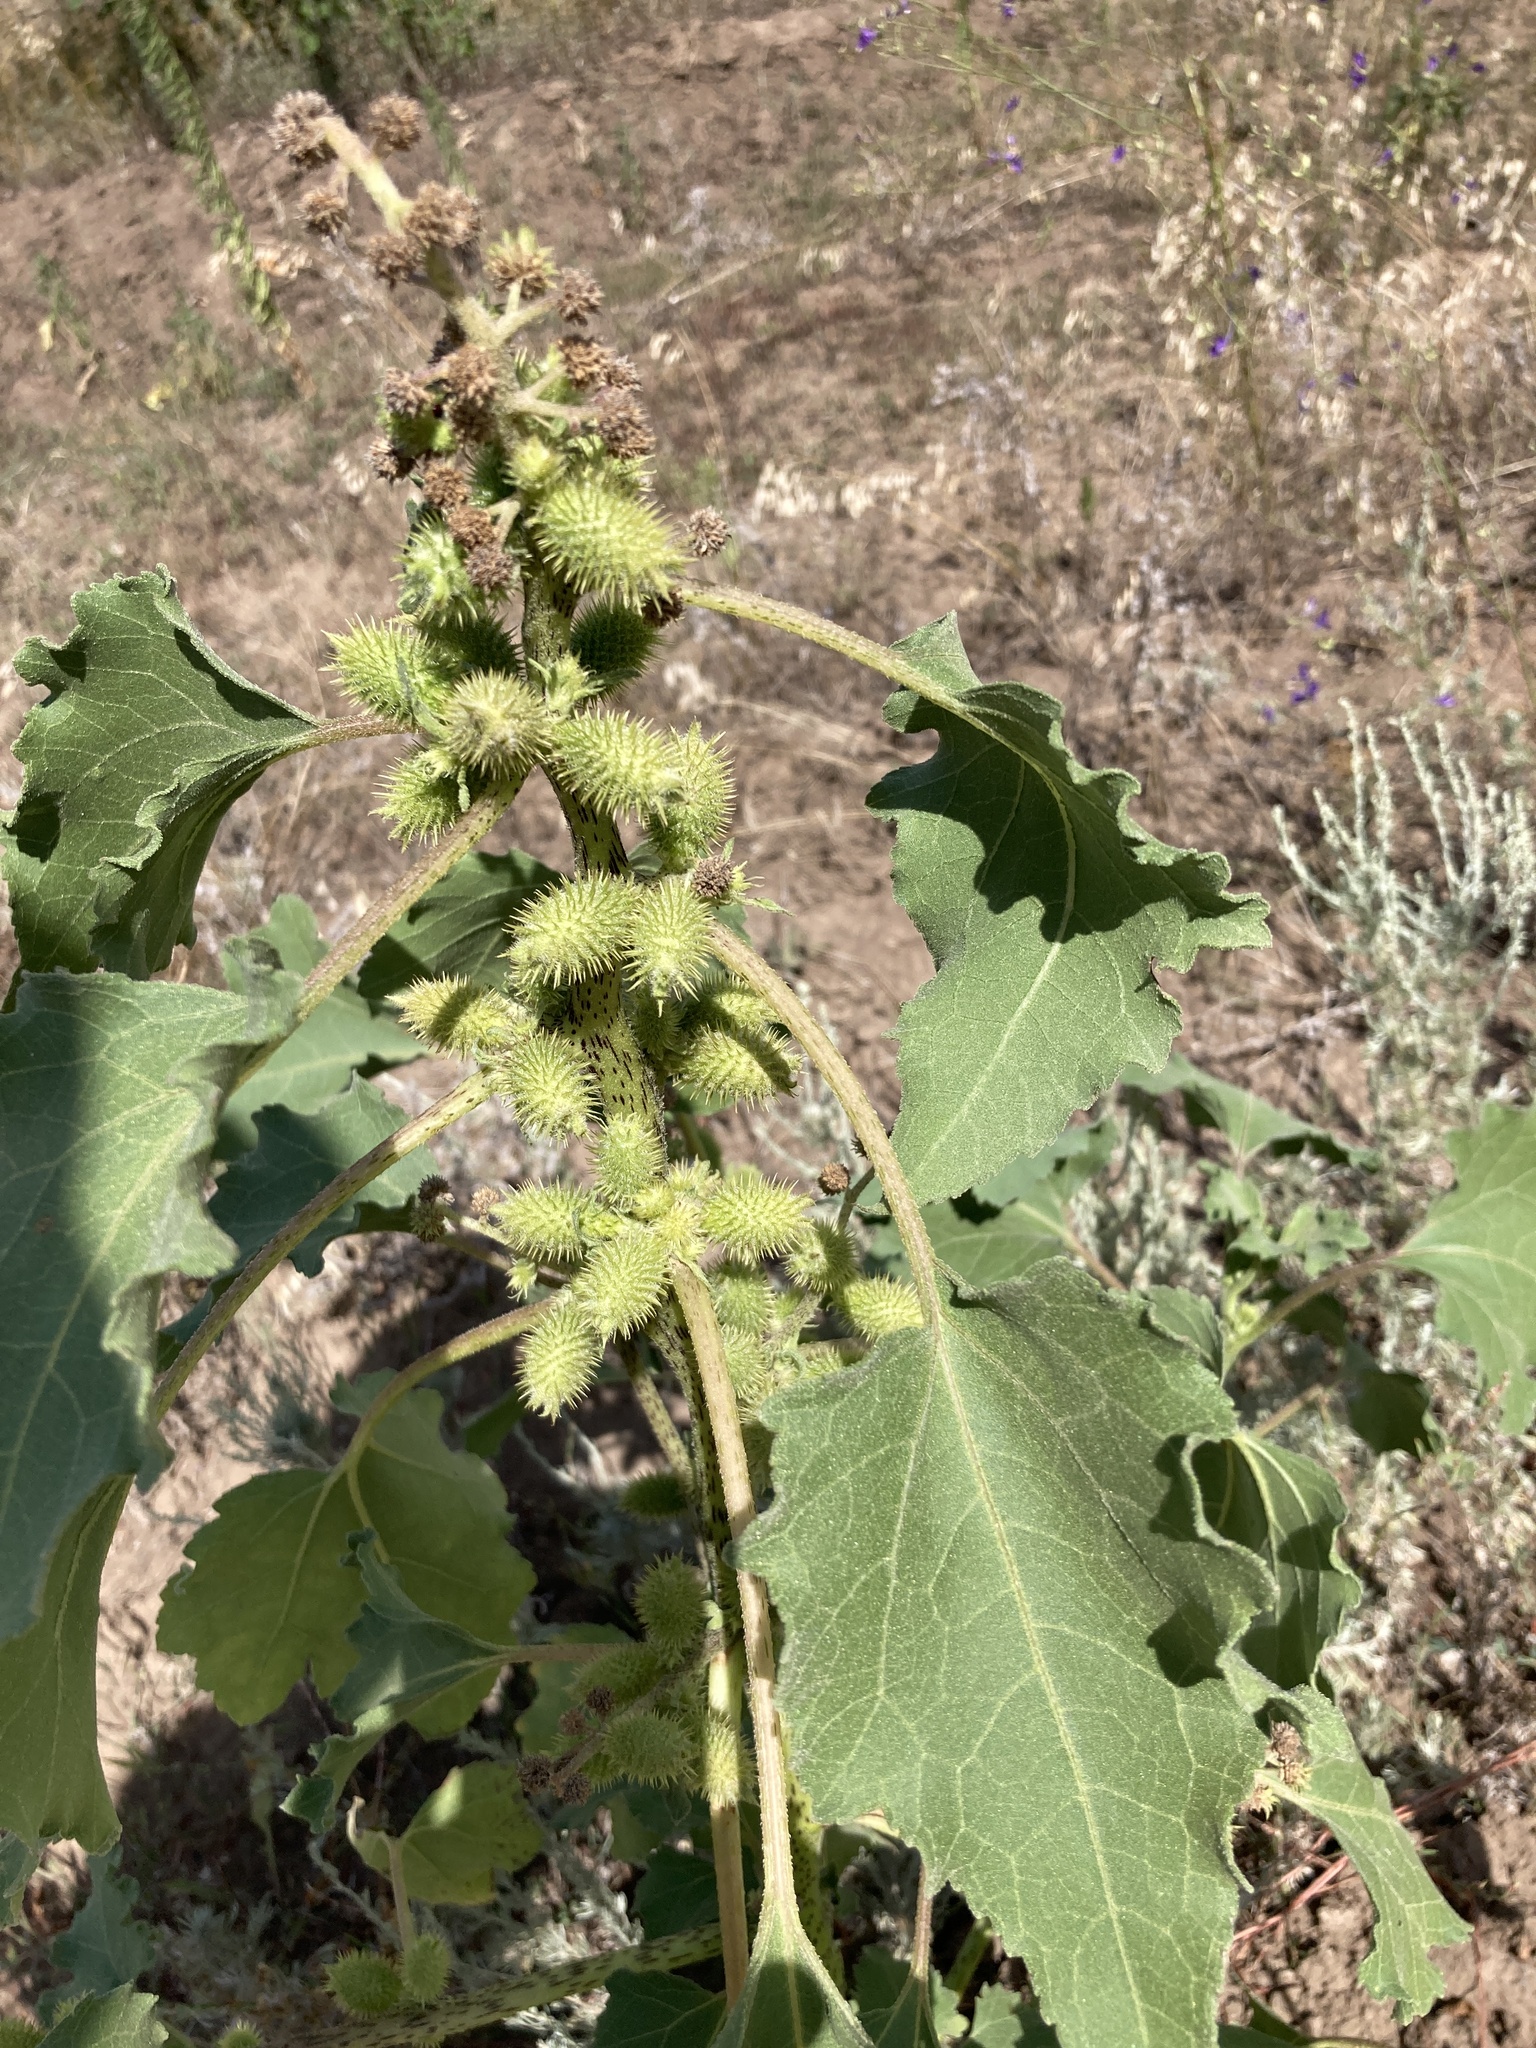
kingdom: Plantae
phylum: Tracheophyta
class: Magnoliopsida
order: Asterales
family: Asteraceae
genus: Xanthium
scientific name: Xanthium orientale
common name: Californian burr
